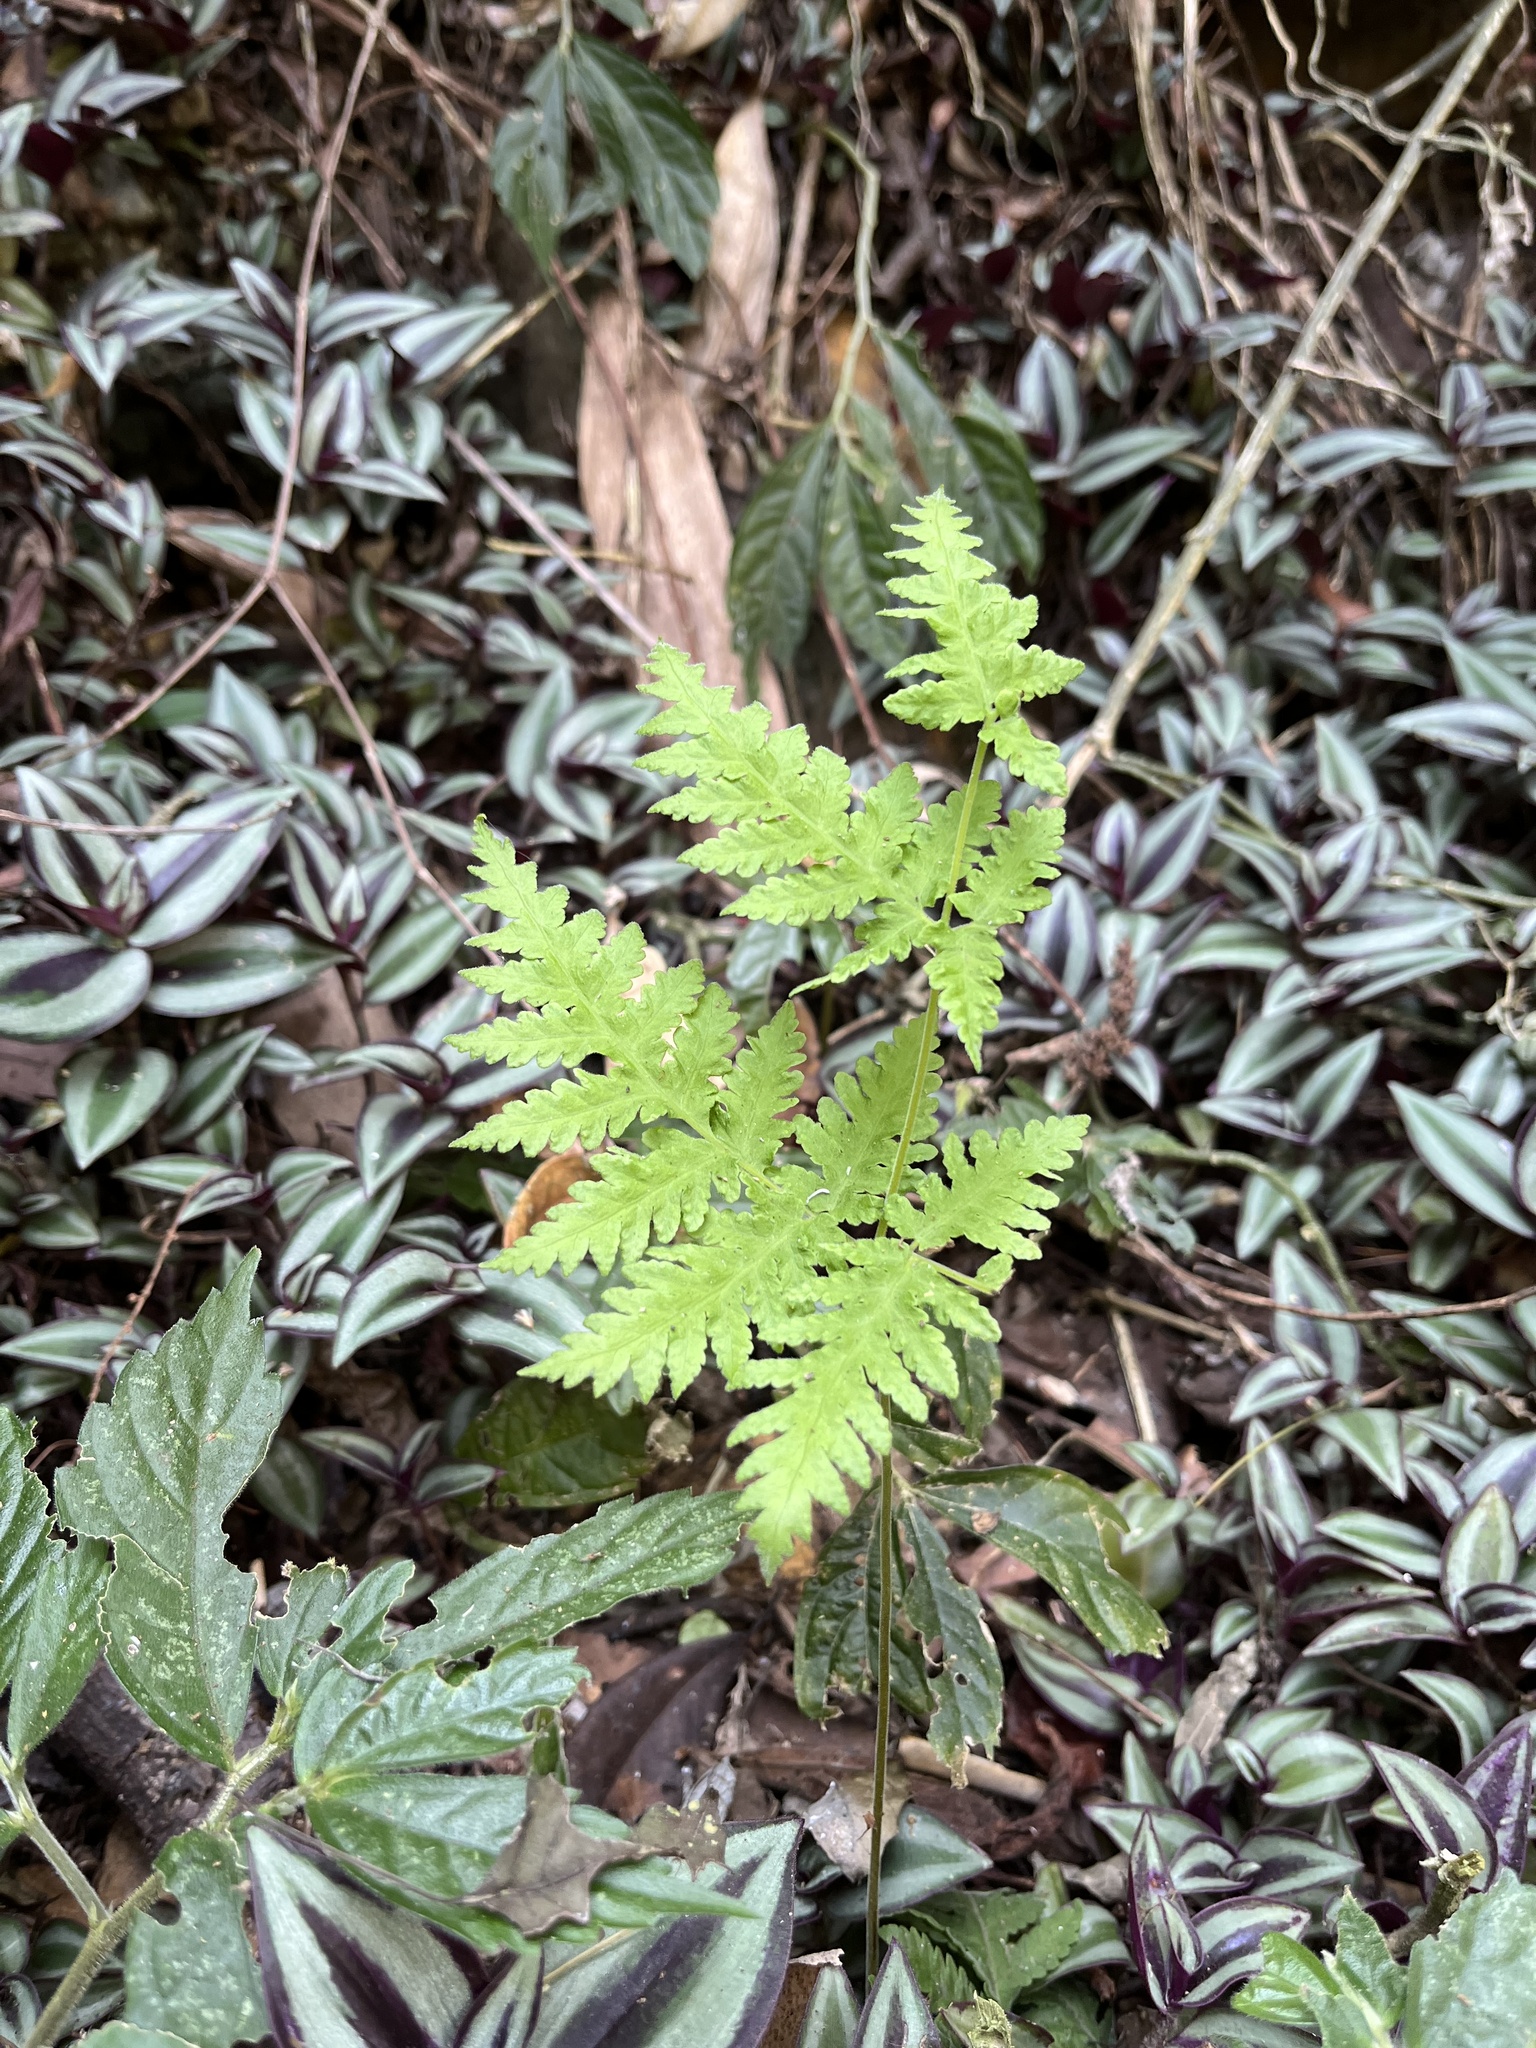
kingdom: Plantae
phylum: Tracheophyta
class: Polypodiopsida
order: Polypodiales
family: Tectariaceae
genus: Tectaria
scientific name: Tectaria membranacea
